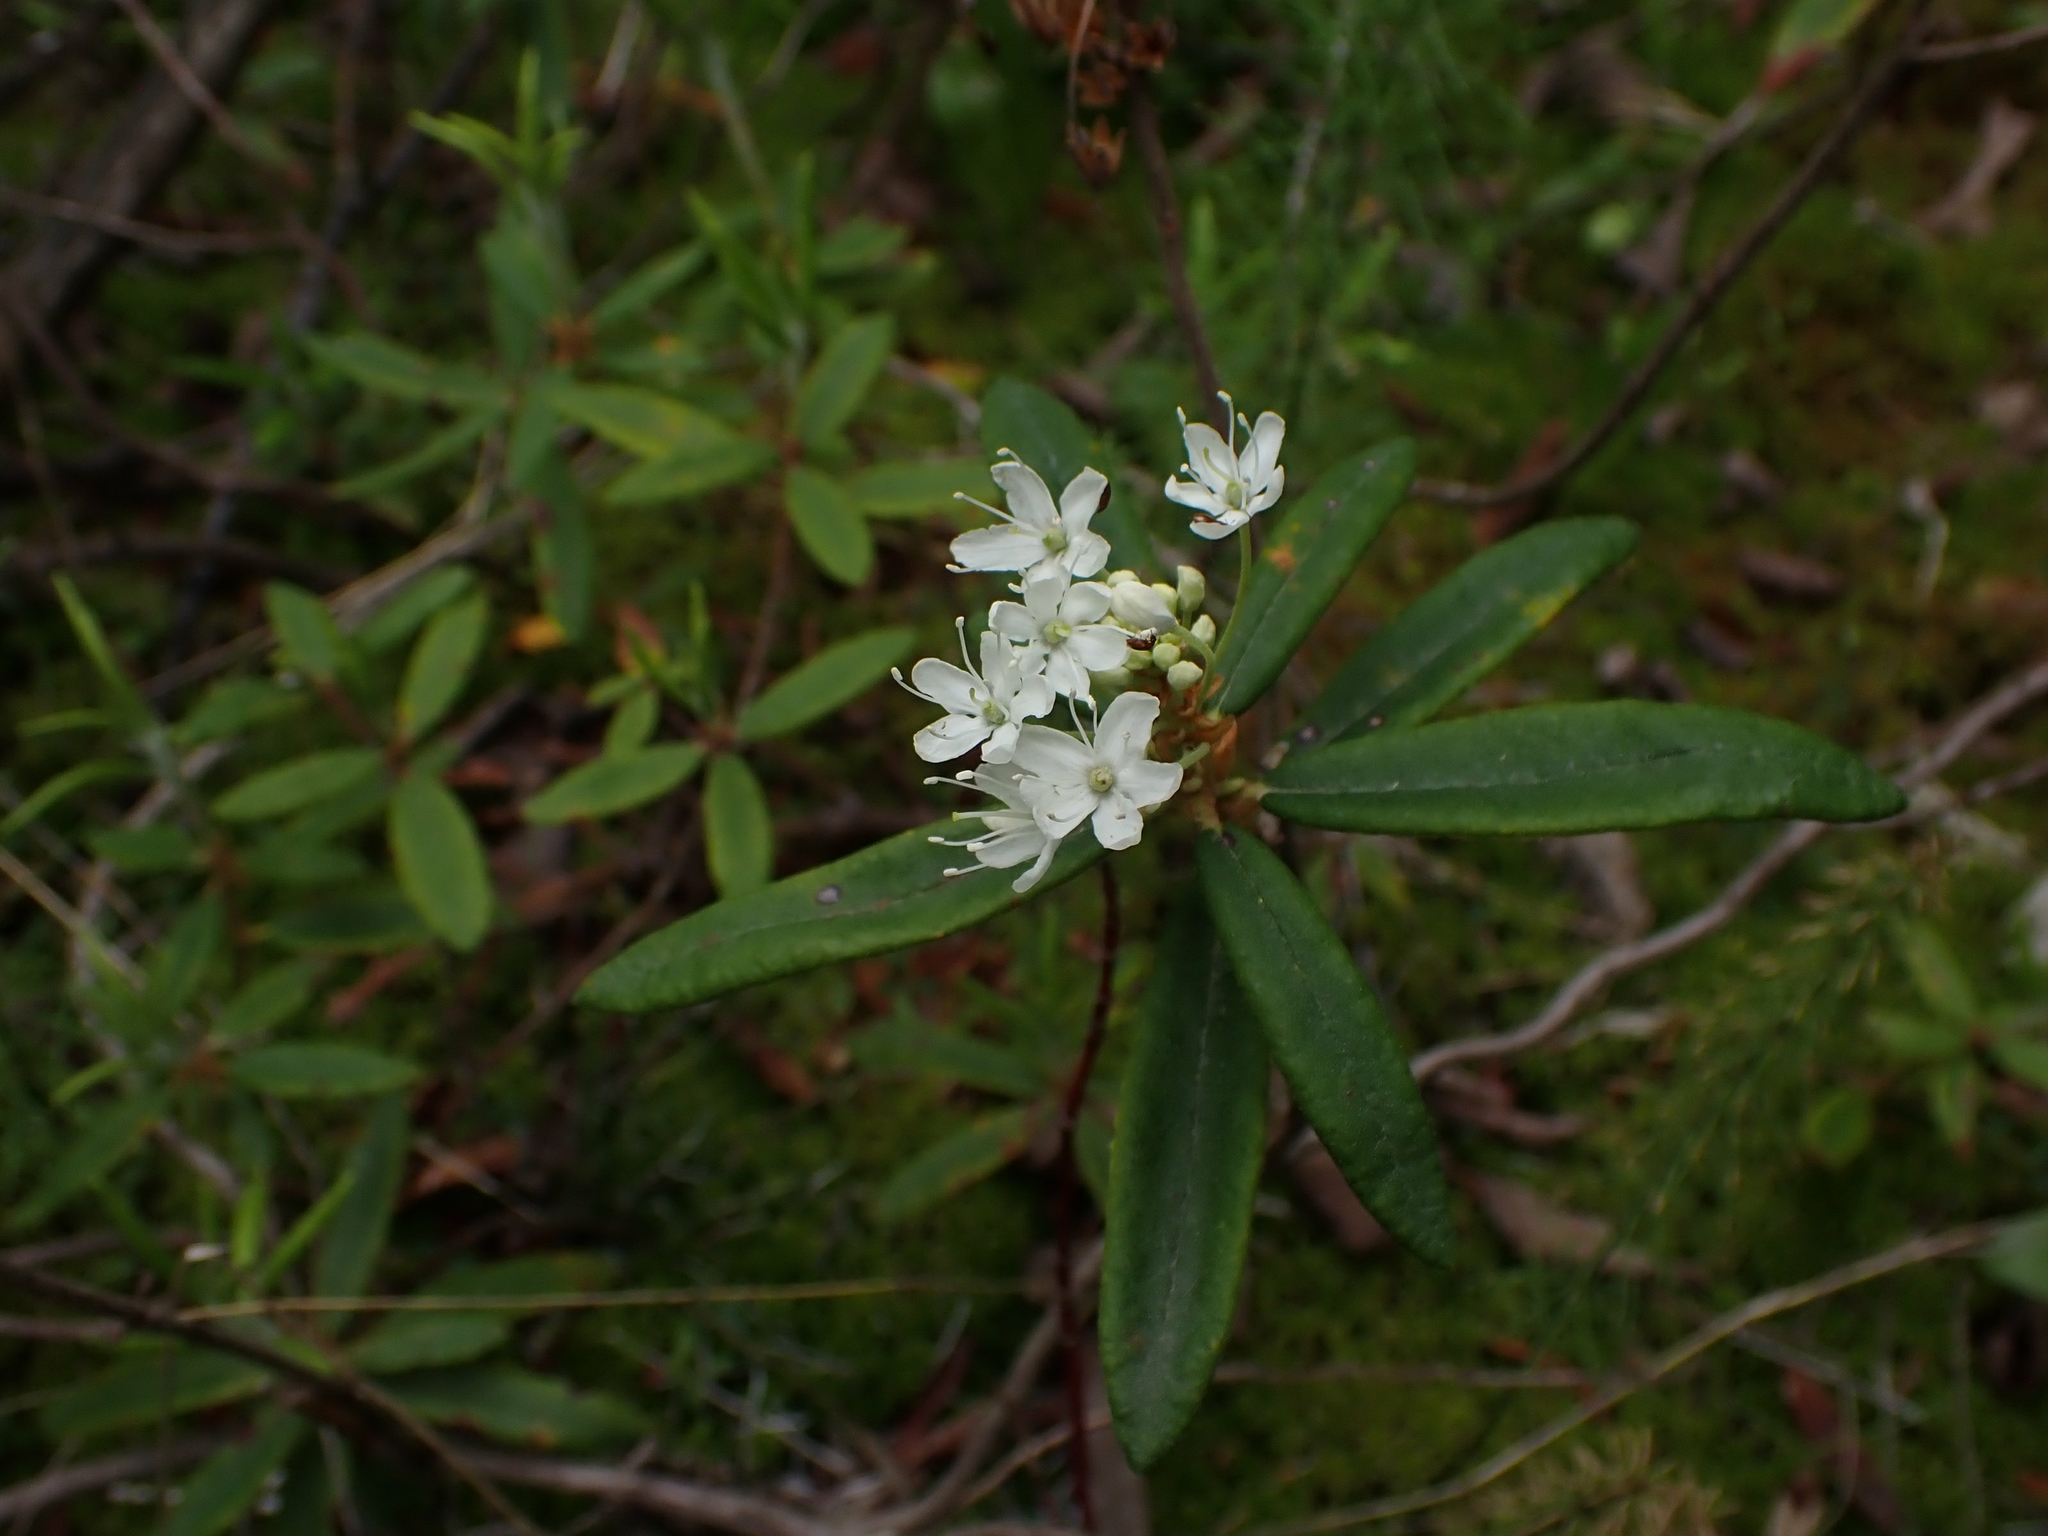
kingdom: Plantae
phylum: Tracheophyta
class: Magnoliopsida
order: Ericales
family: Ericaceae
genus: Rhododendron
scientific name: Rhododendron groenlandicum
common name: Bog labrador tea
